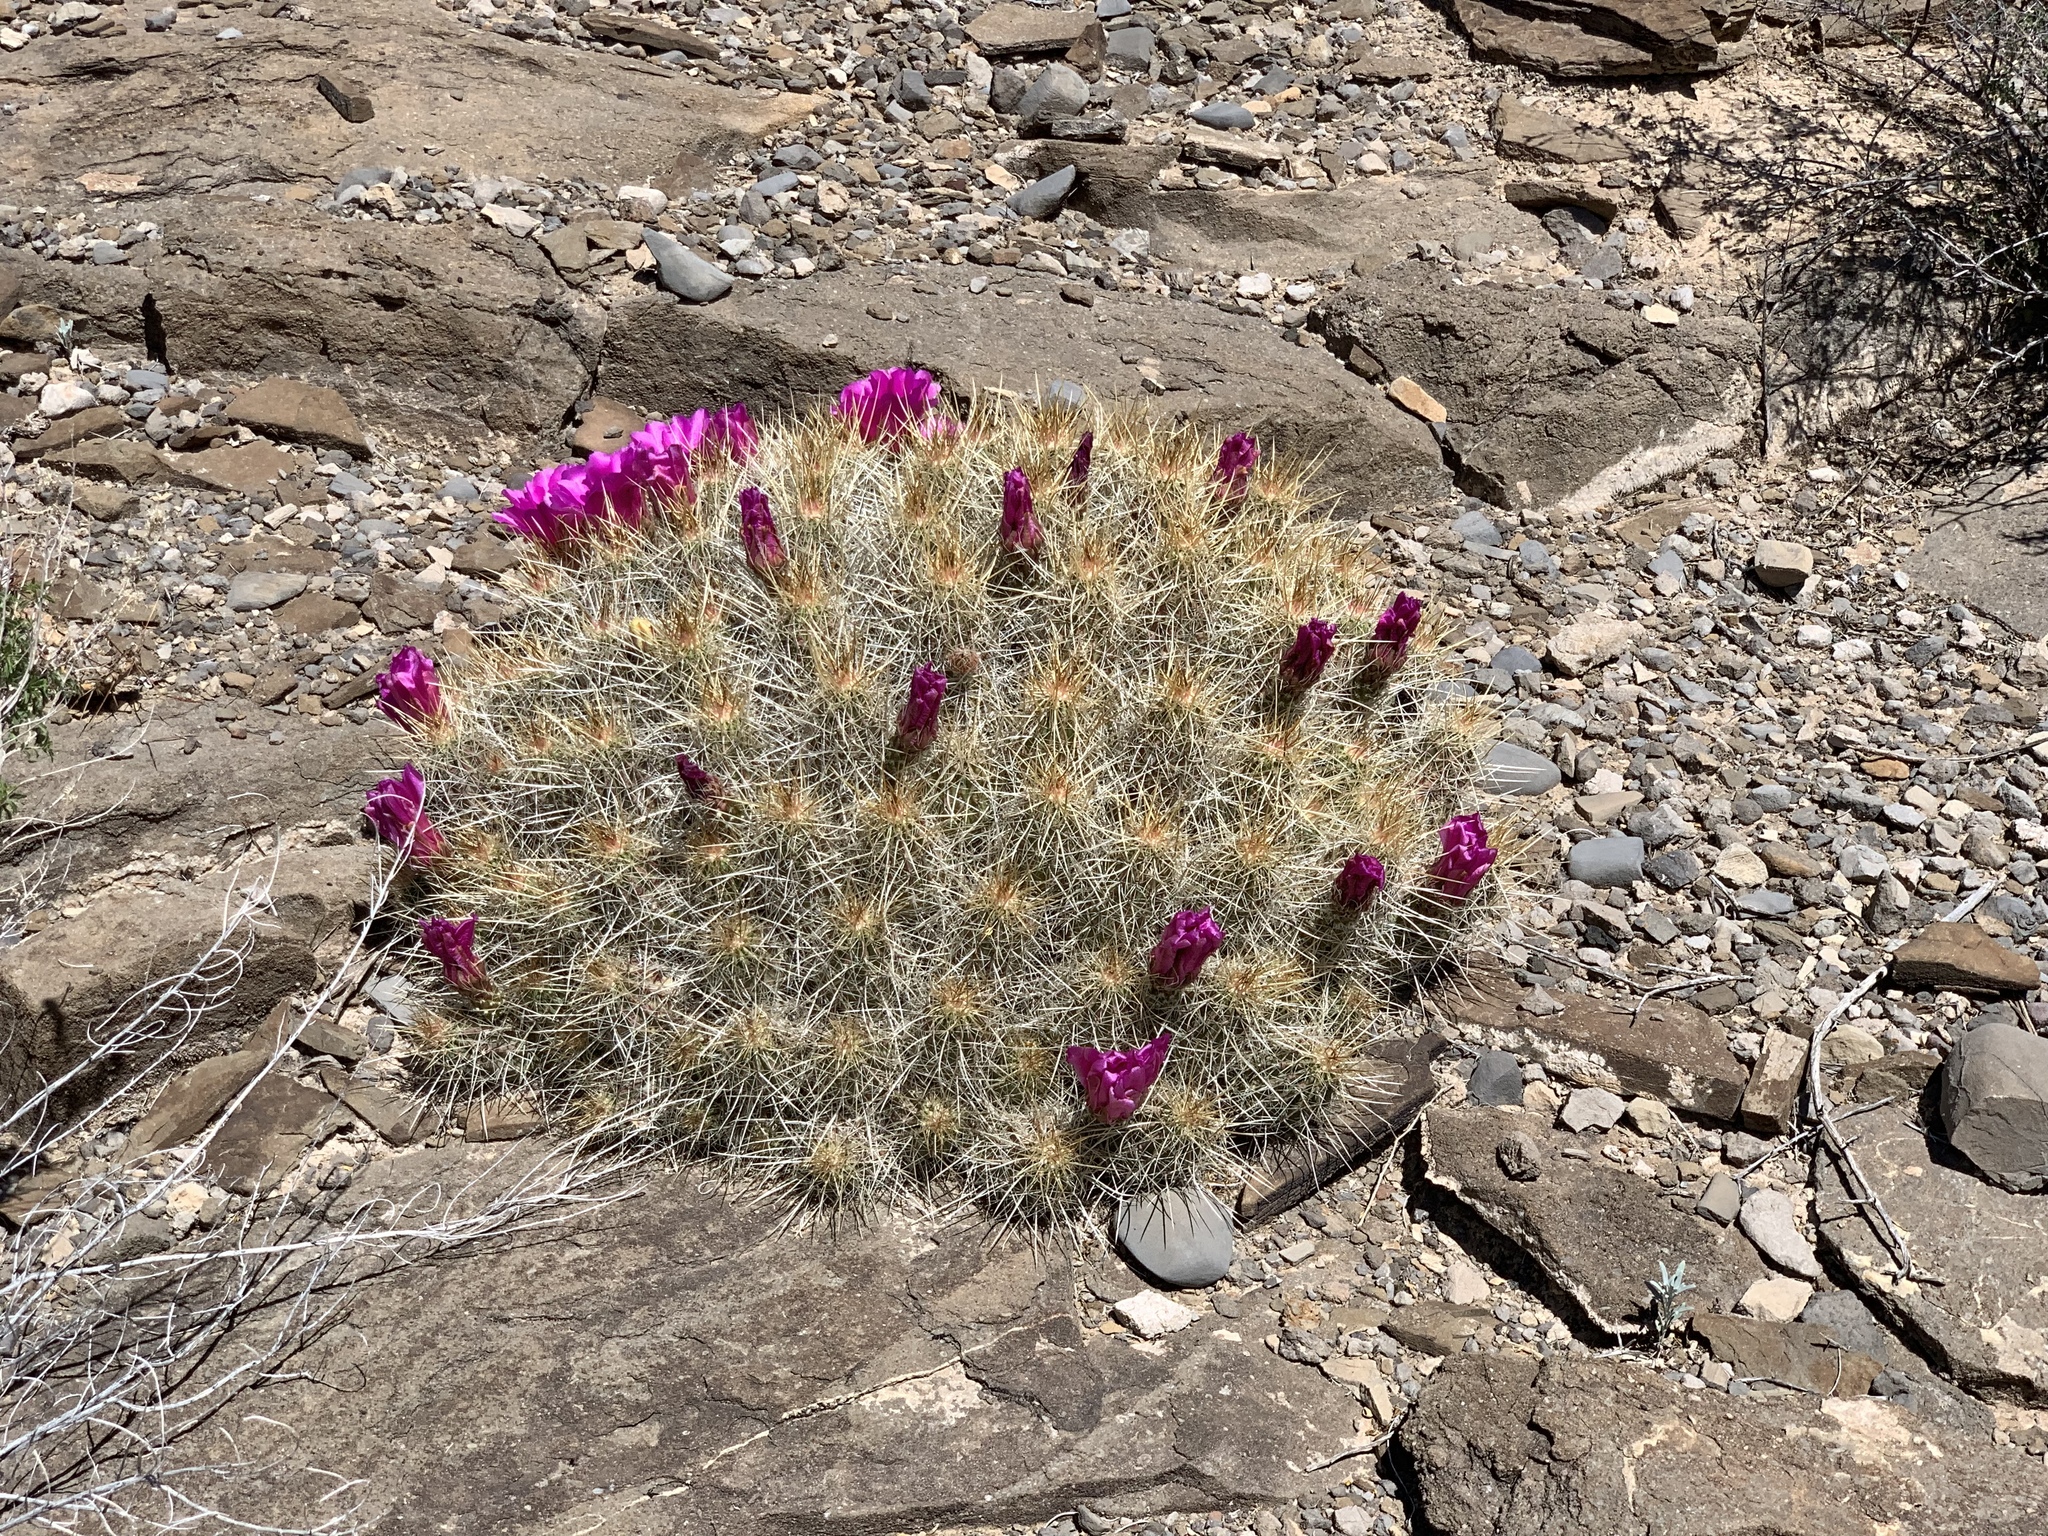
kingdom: Plantae
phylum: Tracheophyta
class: Magnoliopsida
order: Caryophyllales
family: Cactaceae
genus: Echinocereus
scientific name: Echinocereus stramineus
